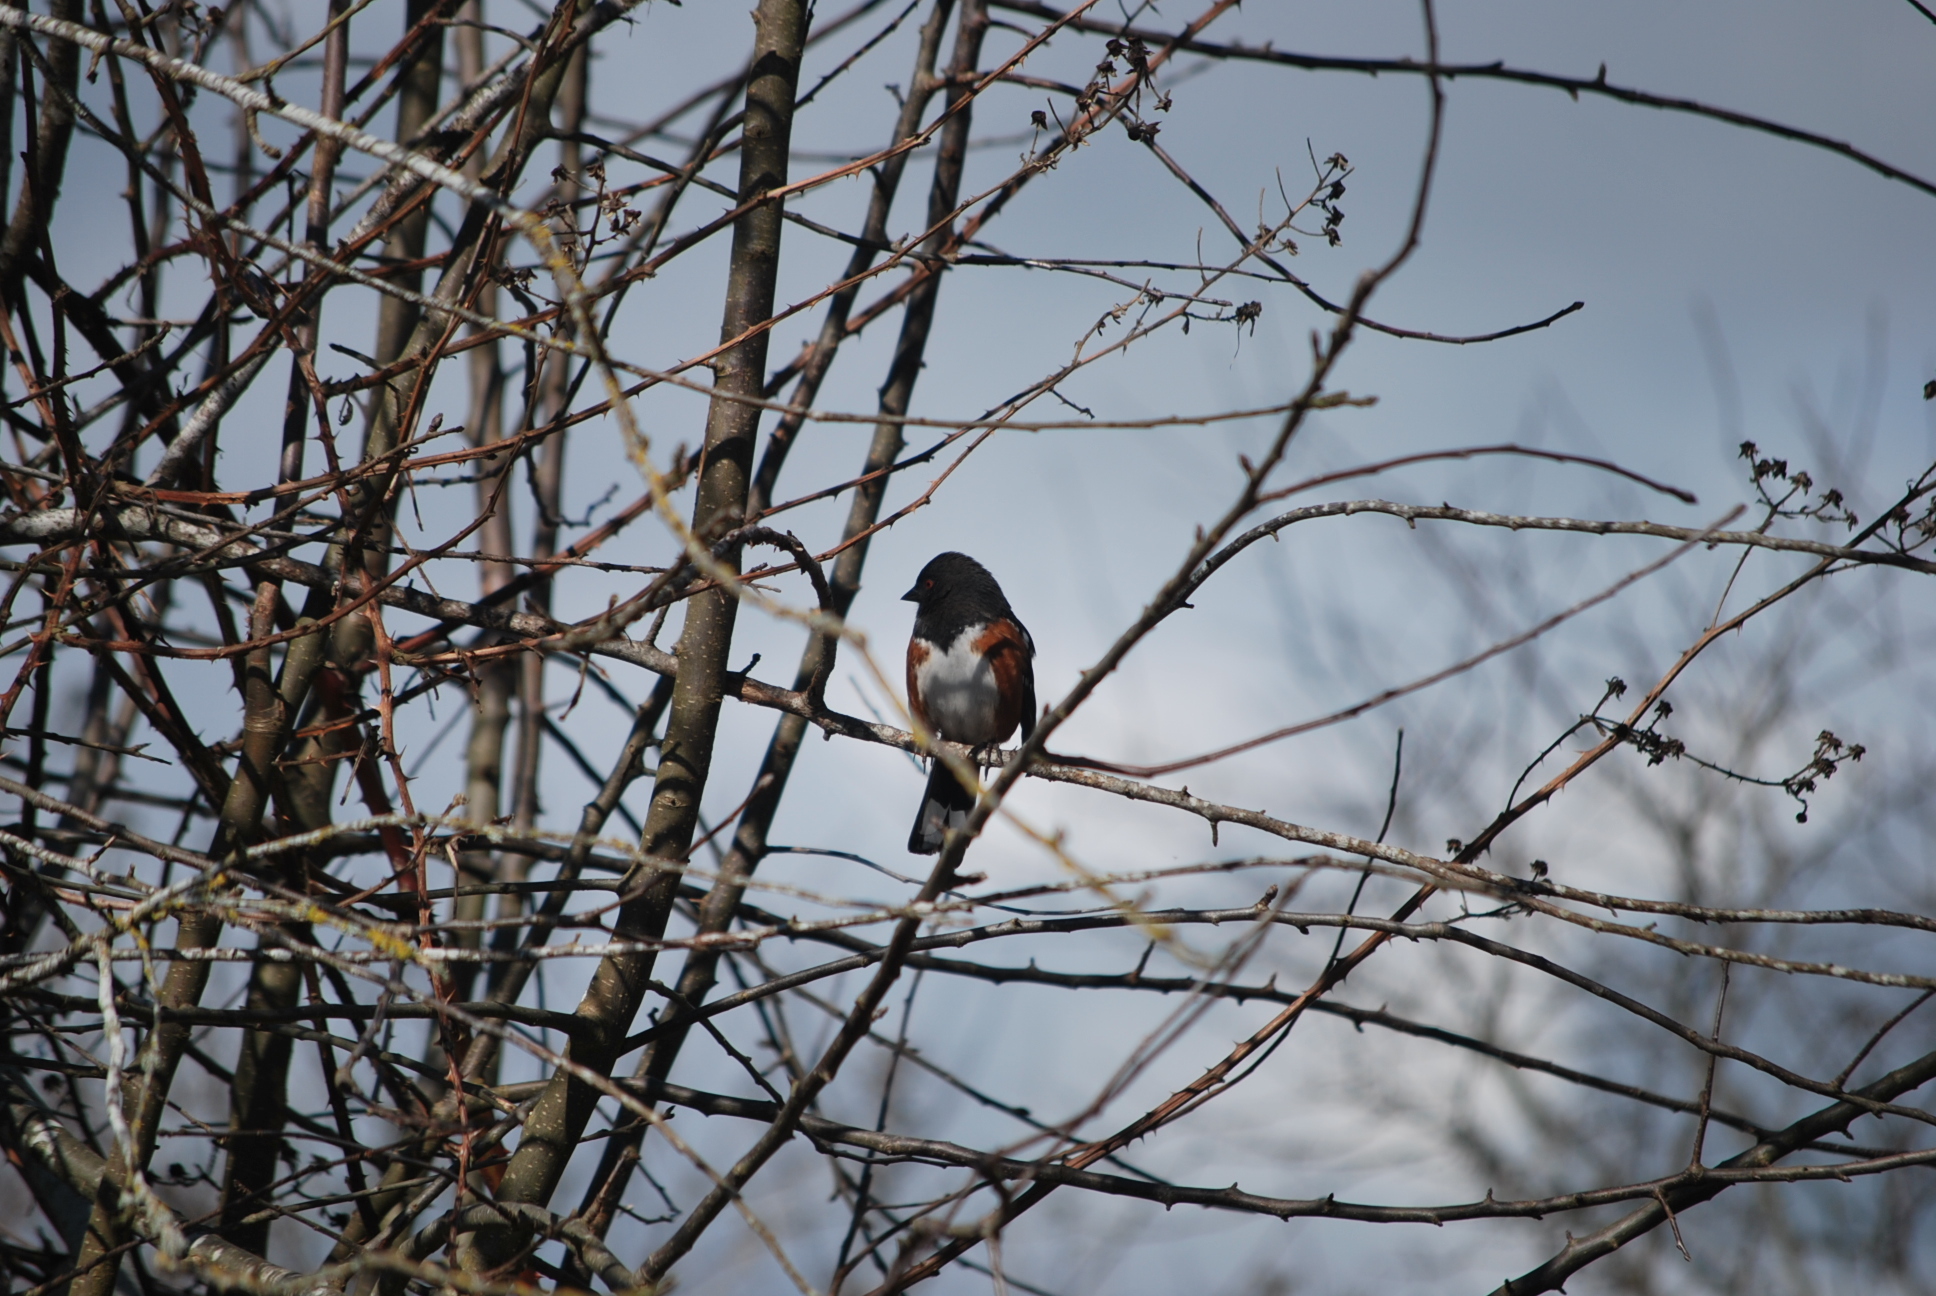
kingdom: Animalia
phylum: Chordata
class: Aves
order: Passeriformes
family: Passerellidae
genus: Pipilo
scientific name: Pipilo maculatus
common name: Spotted towhee
